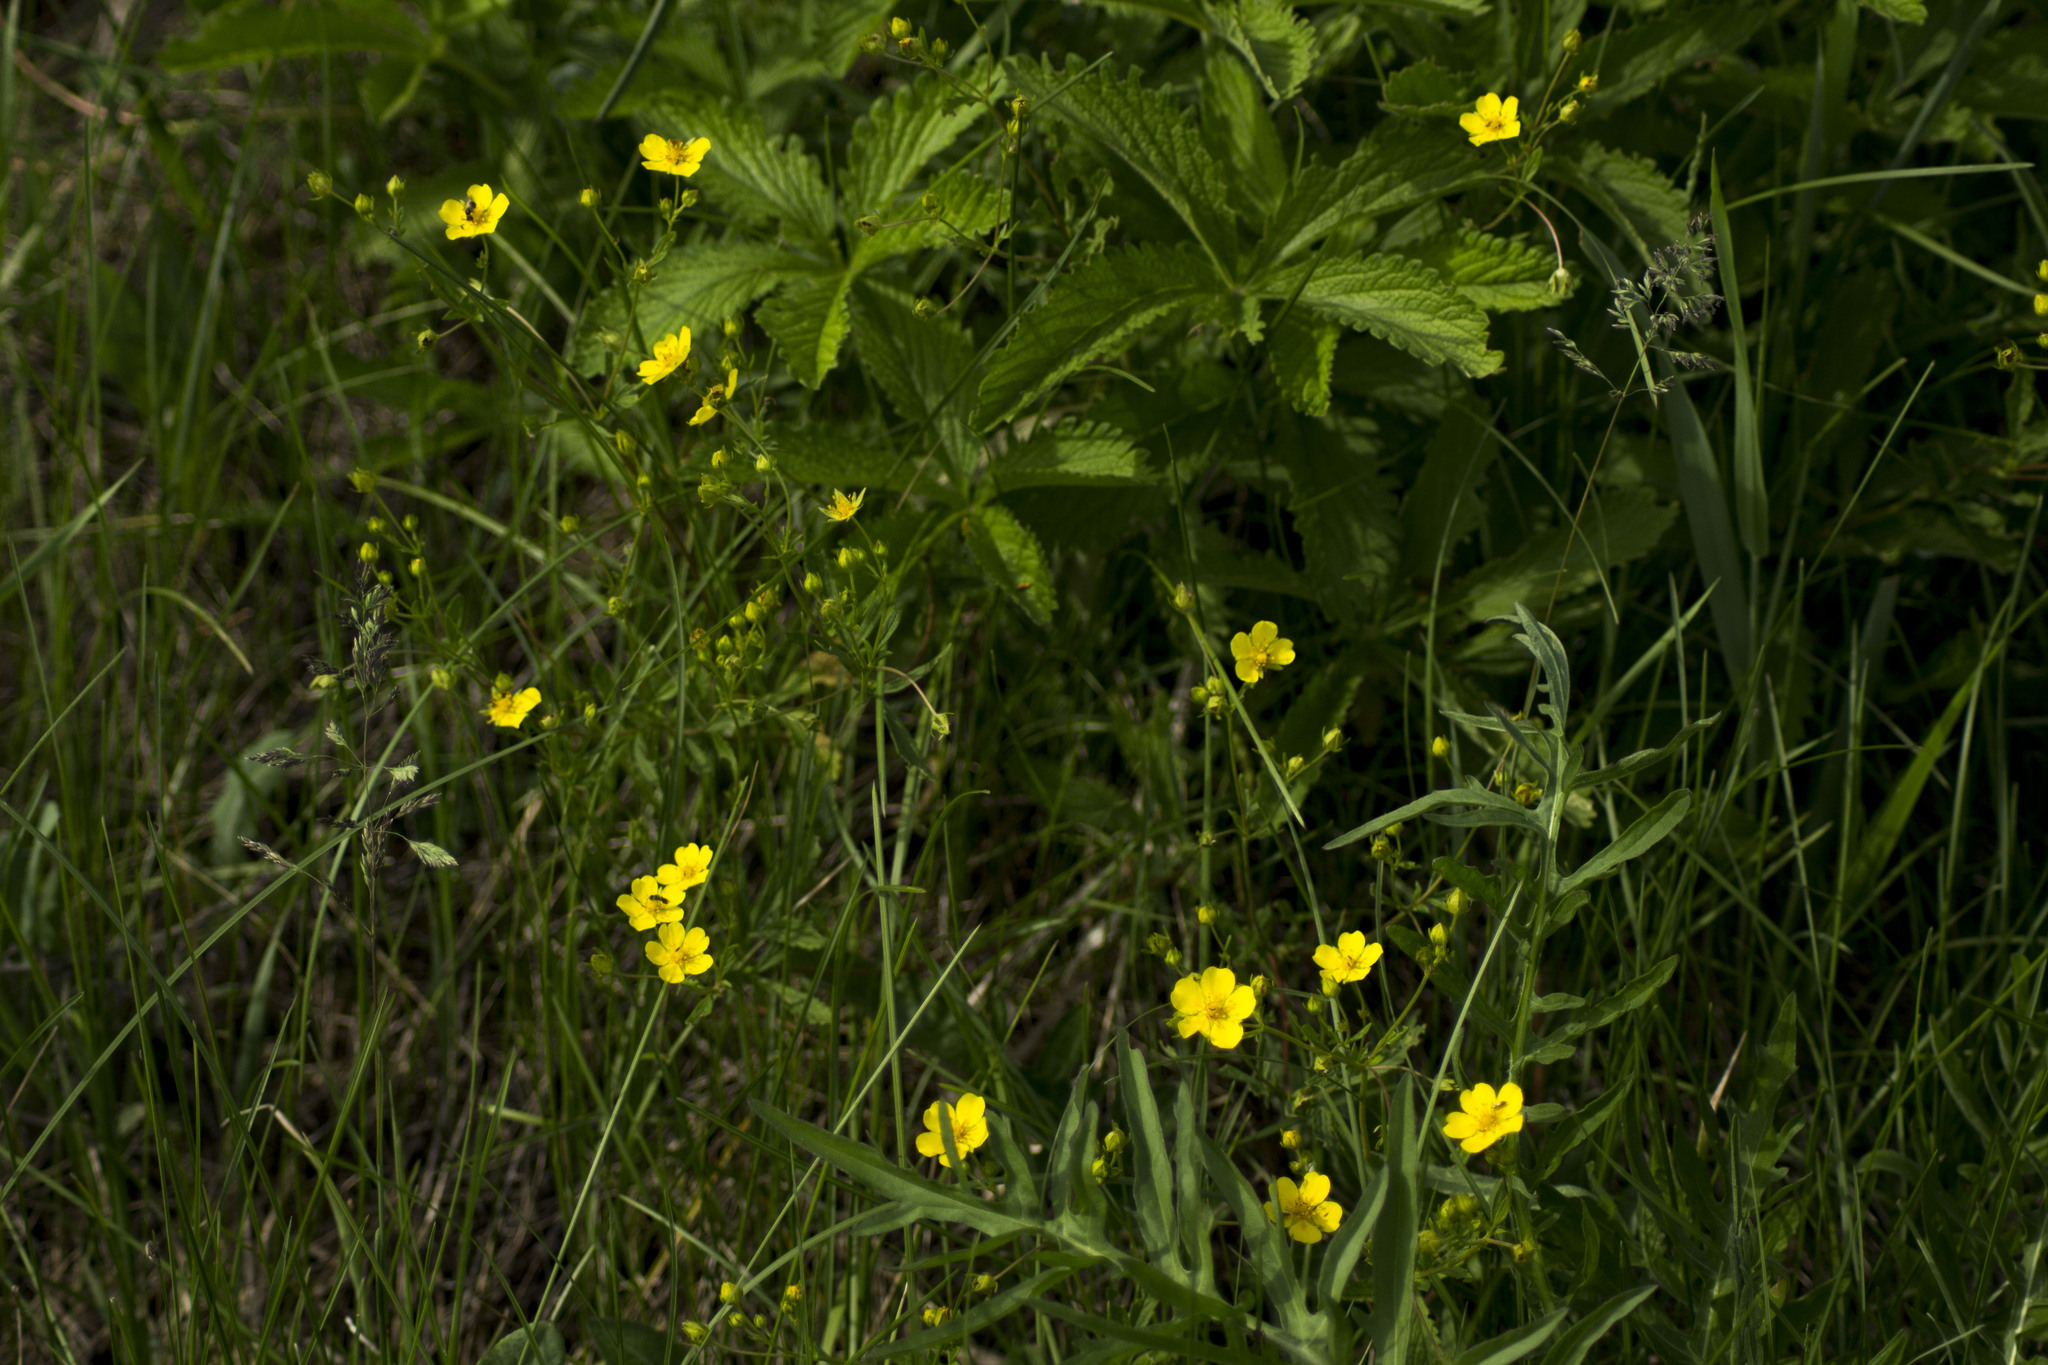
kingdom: Plantae
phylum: Tracheophyta
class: Magnoliopsida
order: Rosales
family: Rosaceae
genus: Potentilla
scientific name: Potentilla chrysantha
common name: Thuringian cinquefoil
